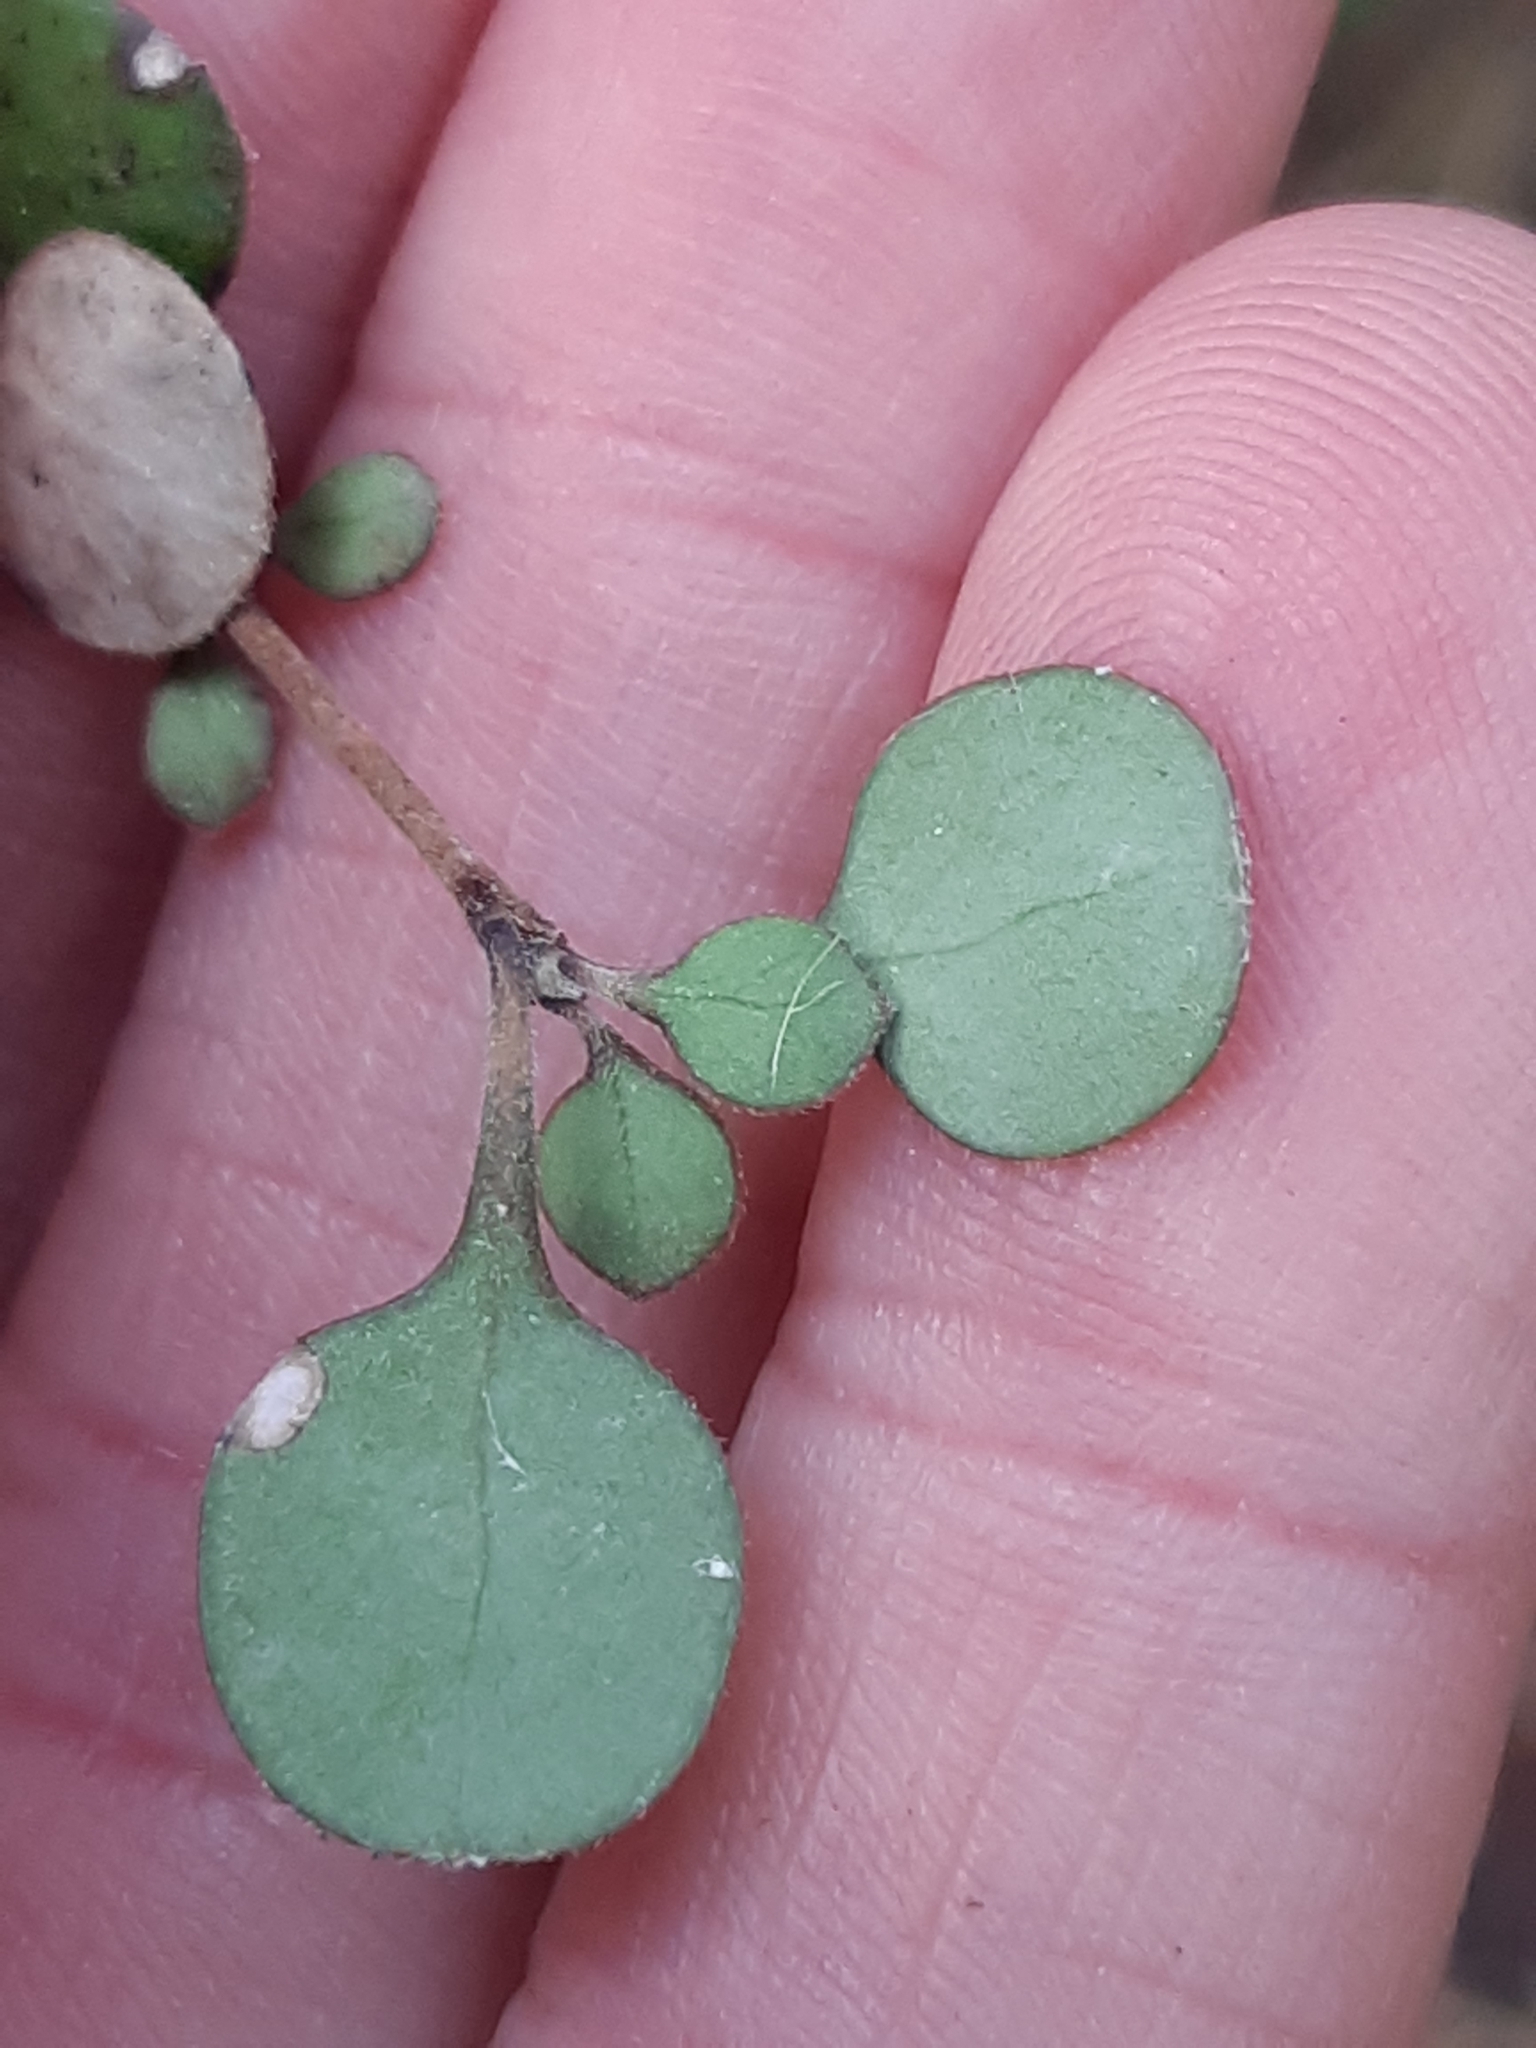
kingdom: Plantae
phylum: Tracheophyta
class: Magnoliopsida
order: Gentianales
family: Rubiaceae
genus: Coprosma
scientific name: Coprosma crassifolia
